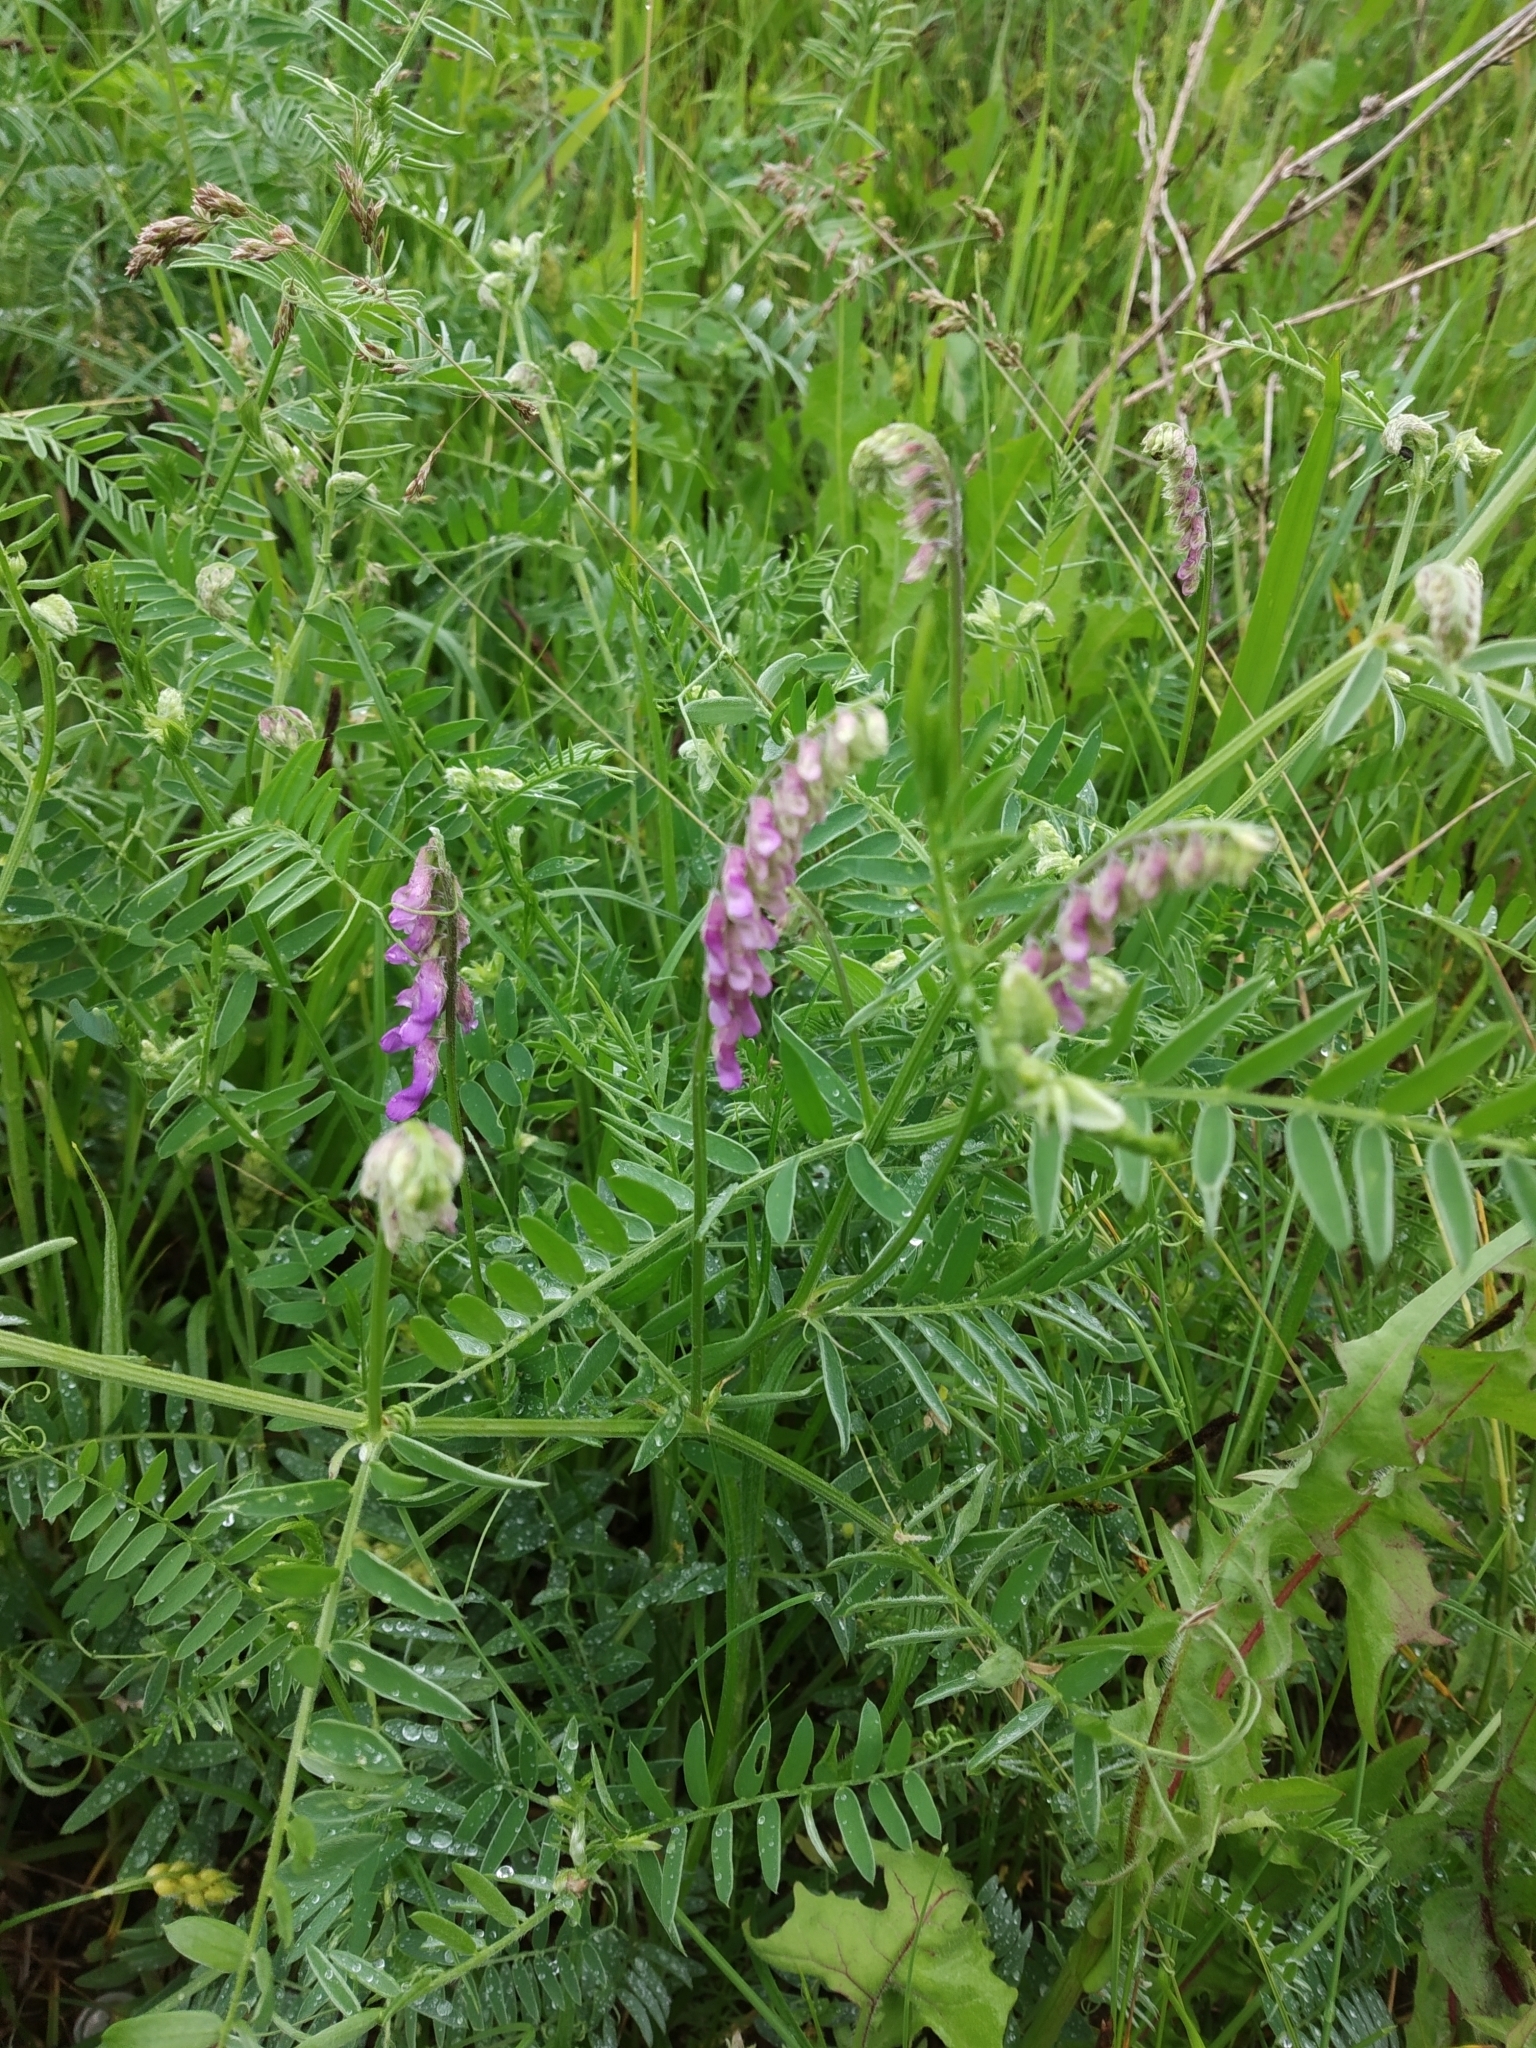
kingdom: Plantae
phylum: Tracheophyta
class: Magnoliopsida
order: Fabales
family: Fabaceae
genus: Vicia
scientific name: Vicia cracca
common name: Bird vetch
